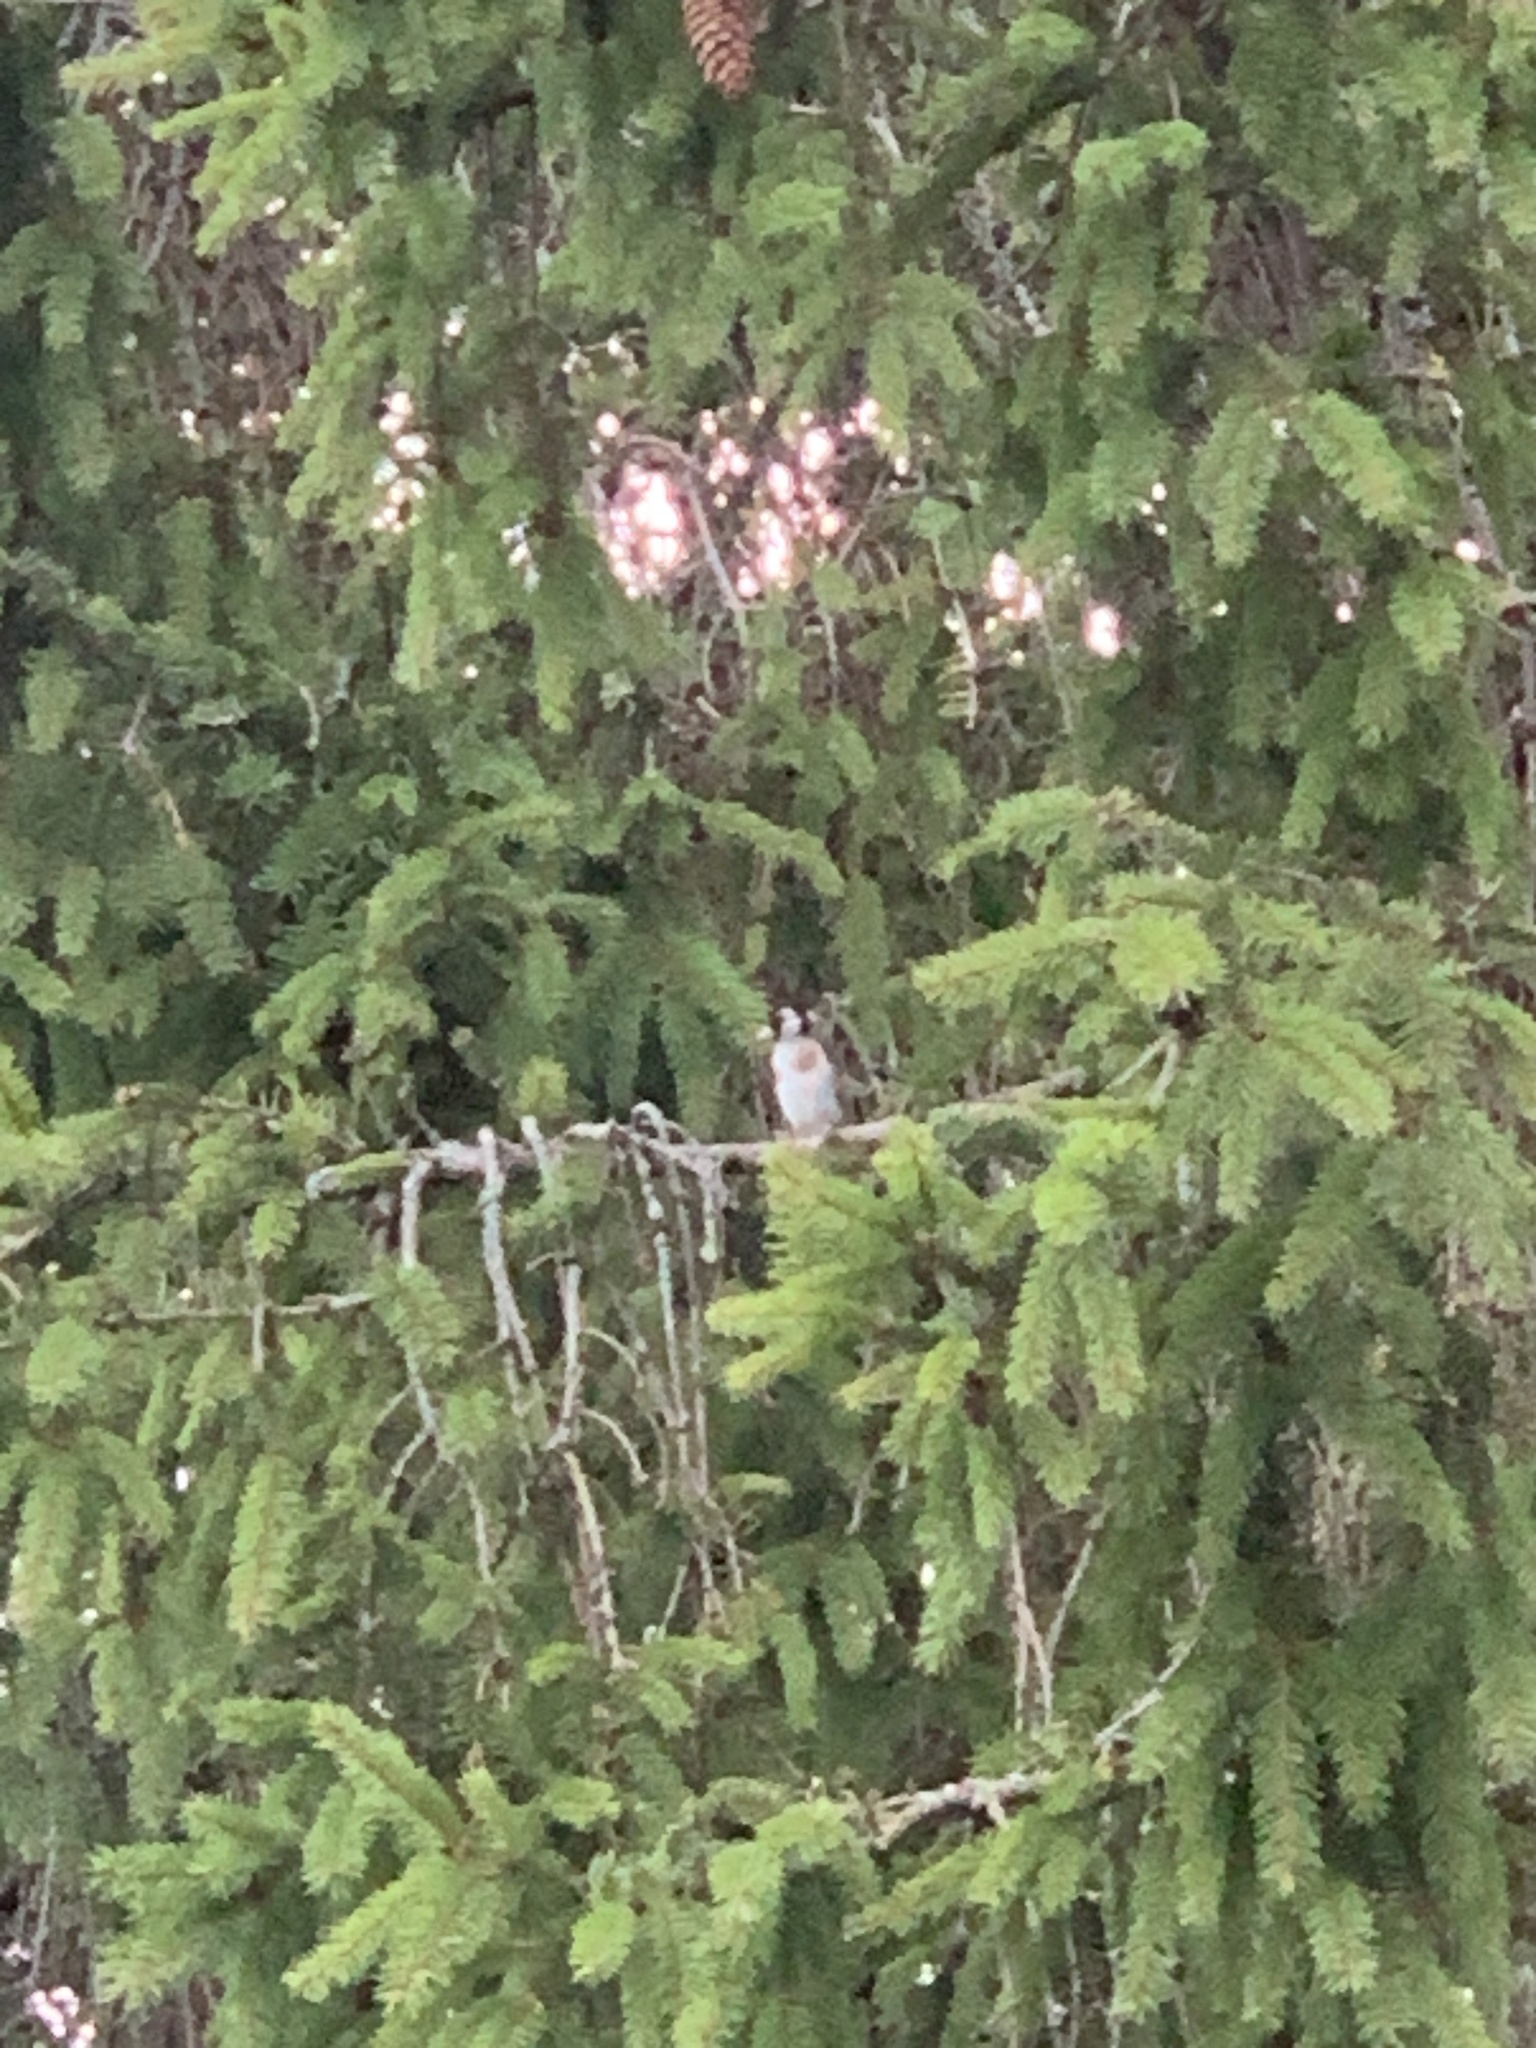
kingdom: Animalia
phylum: Chordata
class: Aves
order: Passeriformes
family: Fringillidae
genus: Carduelis
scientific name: Carduelis carduelis
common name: European goldfinch
